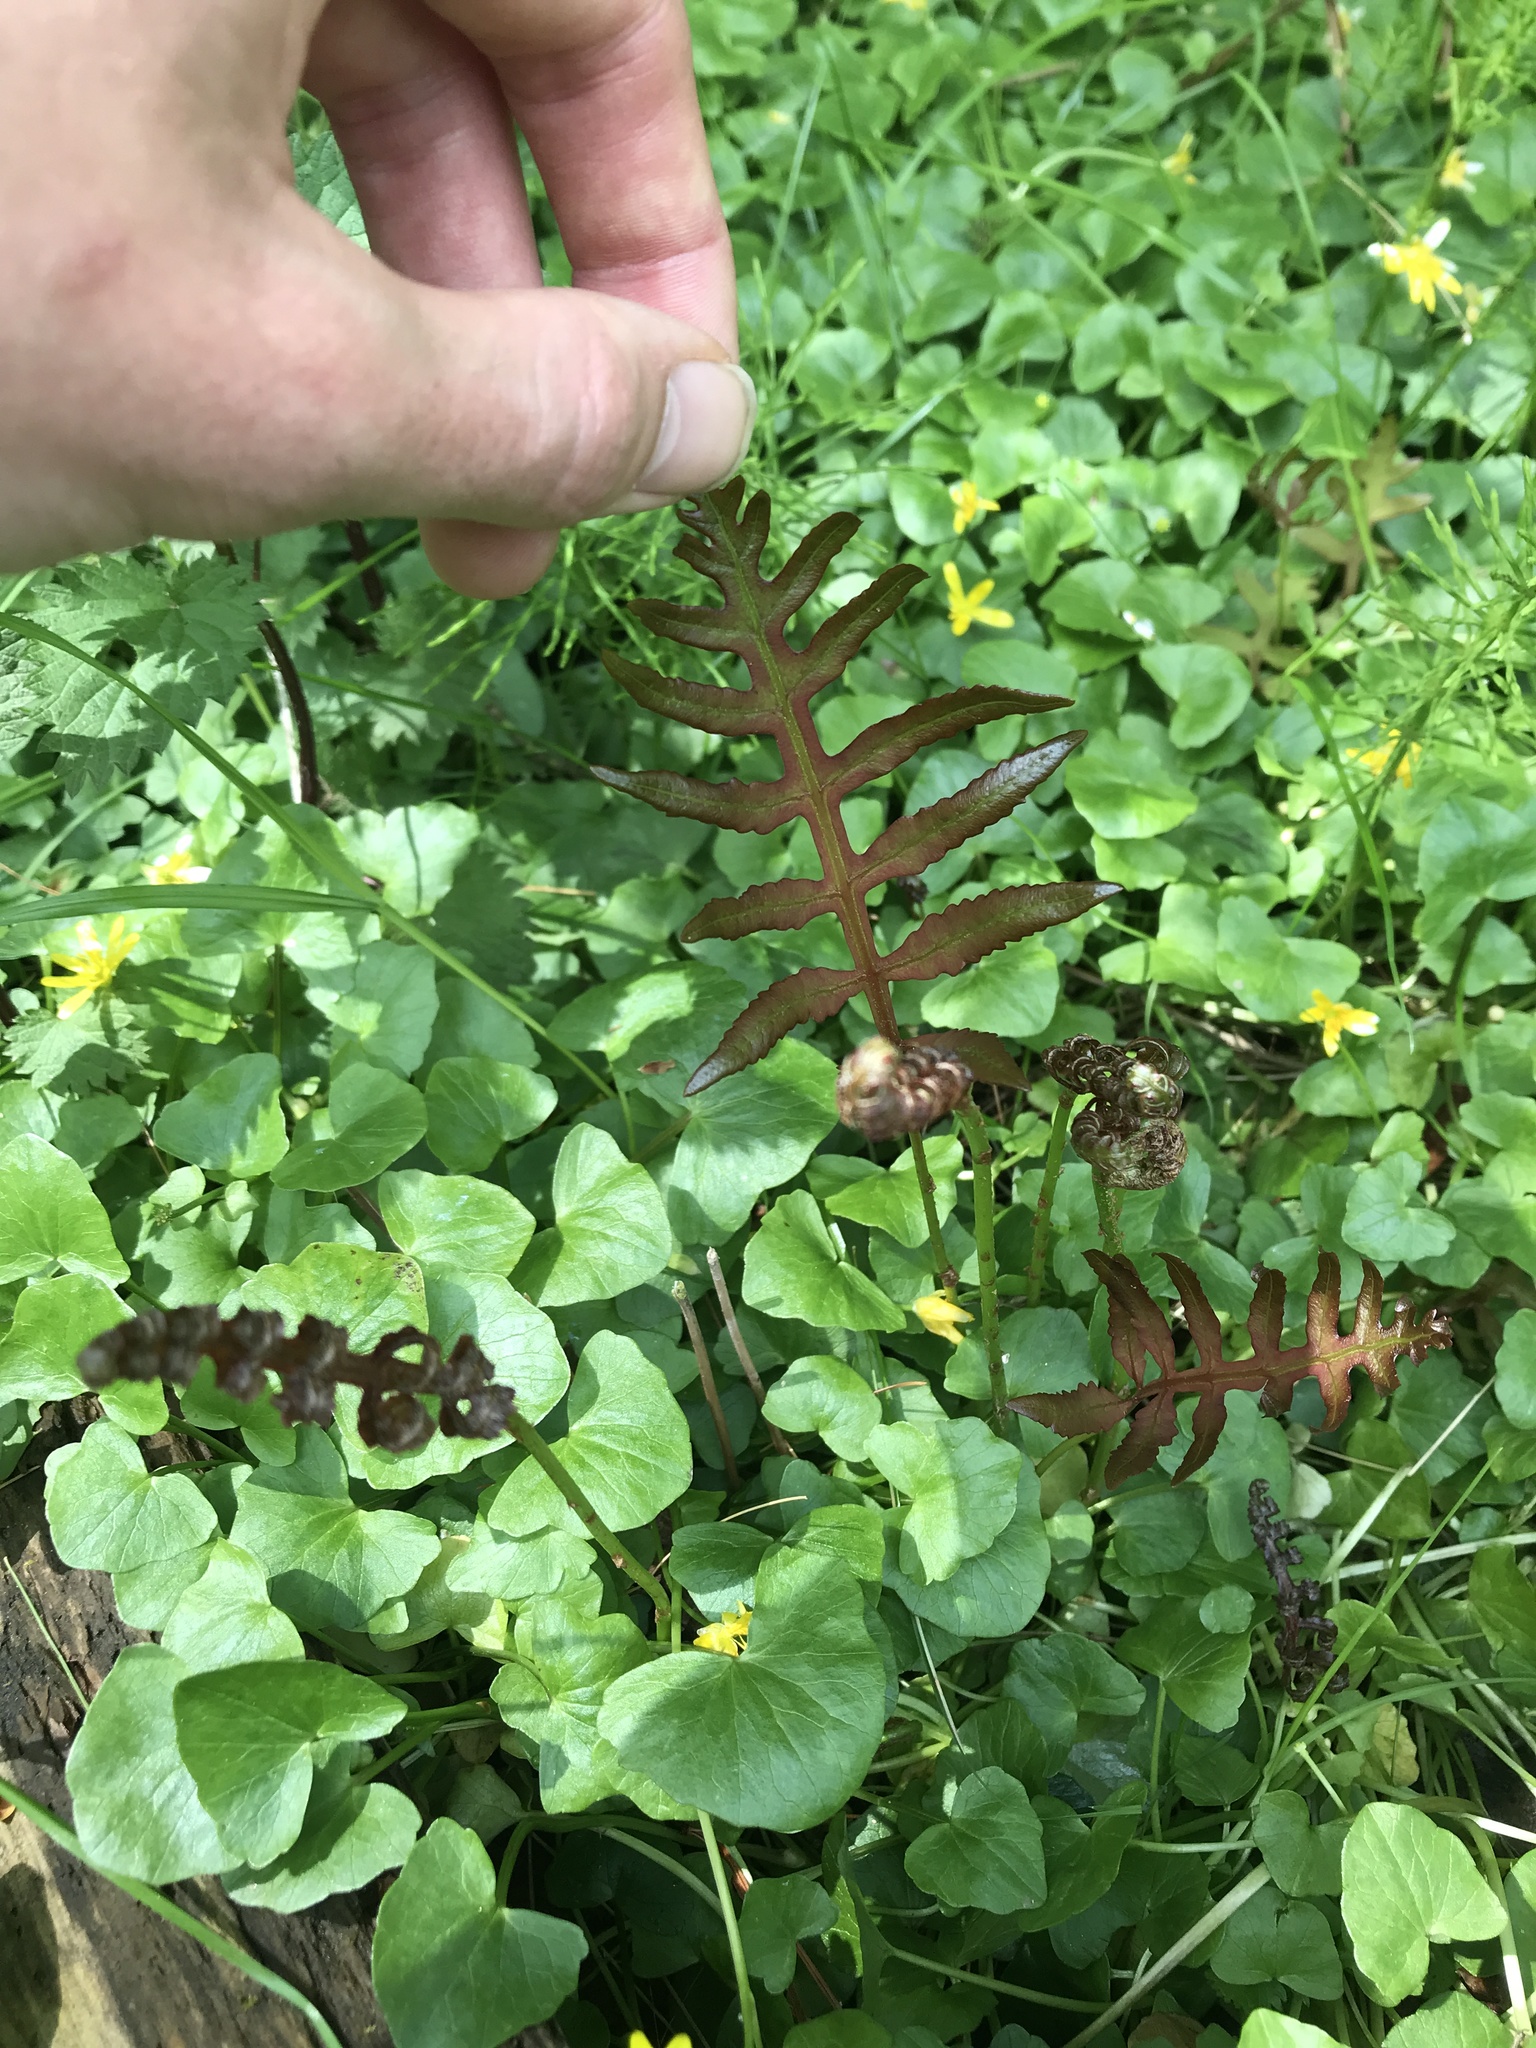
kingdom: Plantae
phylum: Tracheophyta
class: Polypodiopsida
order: Polypodiales
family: Onocleaceae
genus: Onoclea
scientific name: Onoclea sensibilis
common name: Sensitive fern
